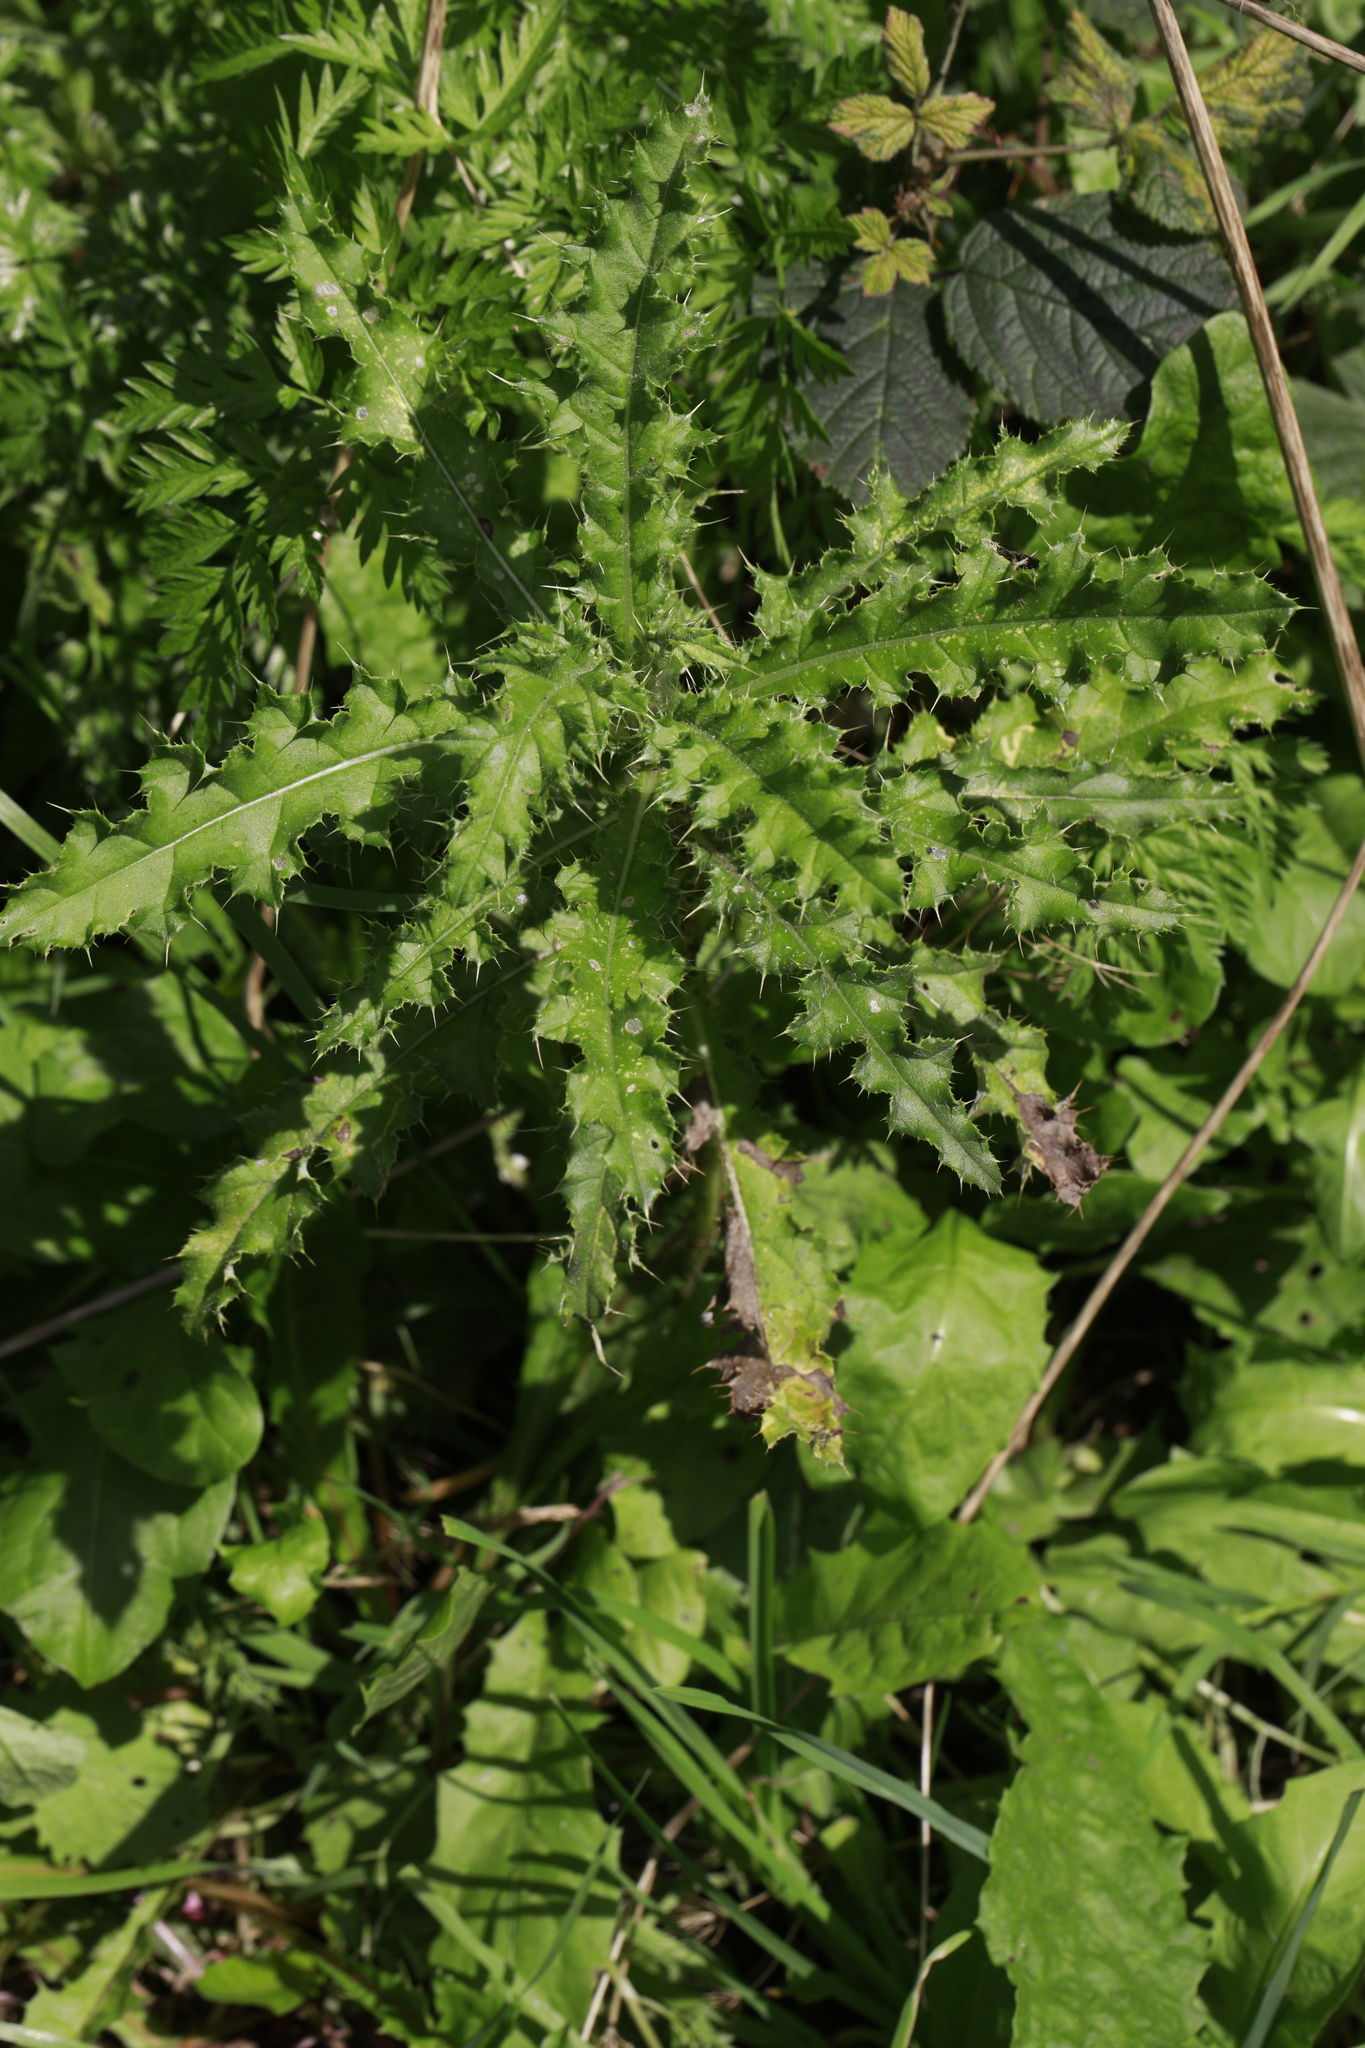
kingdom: Plantae
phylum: Tracheophyta
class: Magnoliopsida
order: Asterales
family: Asteraceae
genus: Cirsium
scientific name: Cirsium arvense
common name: Creeping thistle
